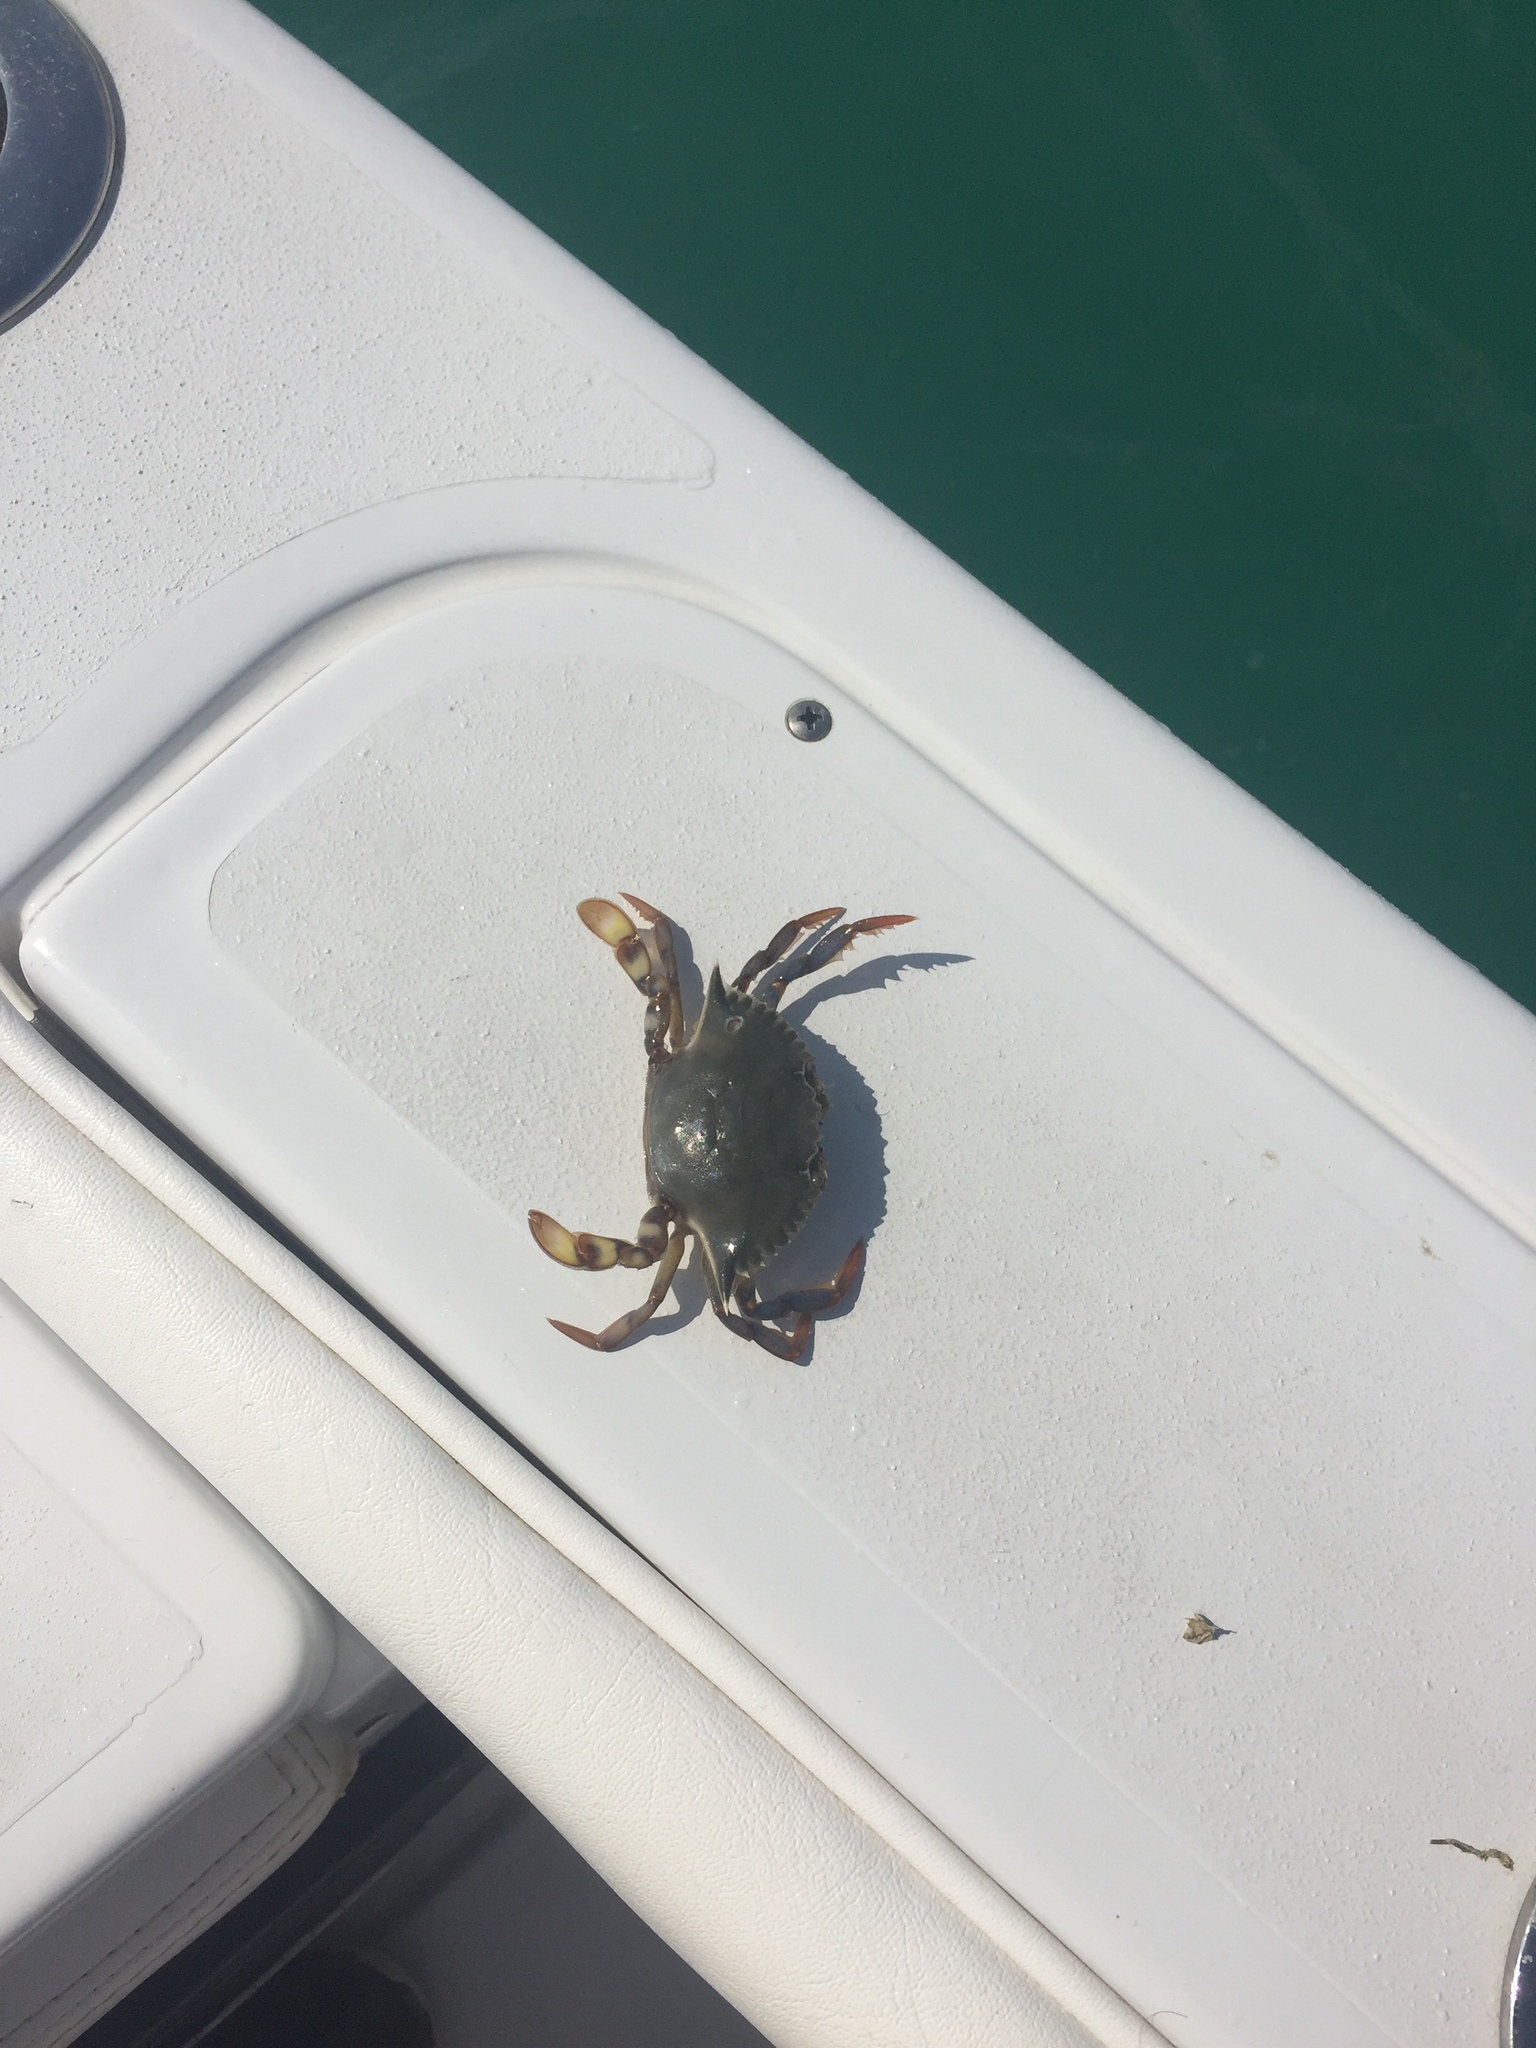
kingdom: Animalia
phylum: Arthropoda
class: Malacostraca
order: Decapoda
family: Portunidae
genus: Callinectes
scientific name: Callinectes sapidus
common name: Blue crab
